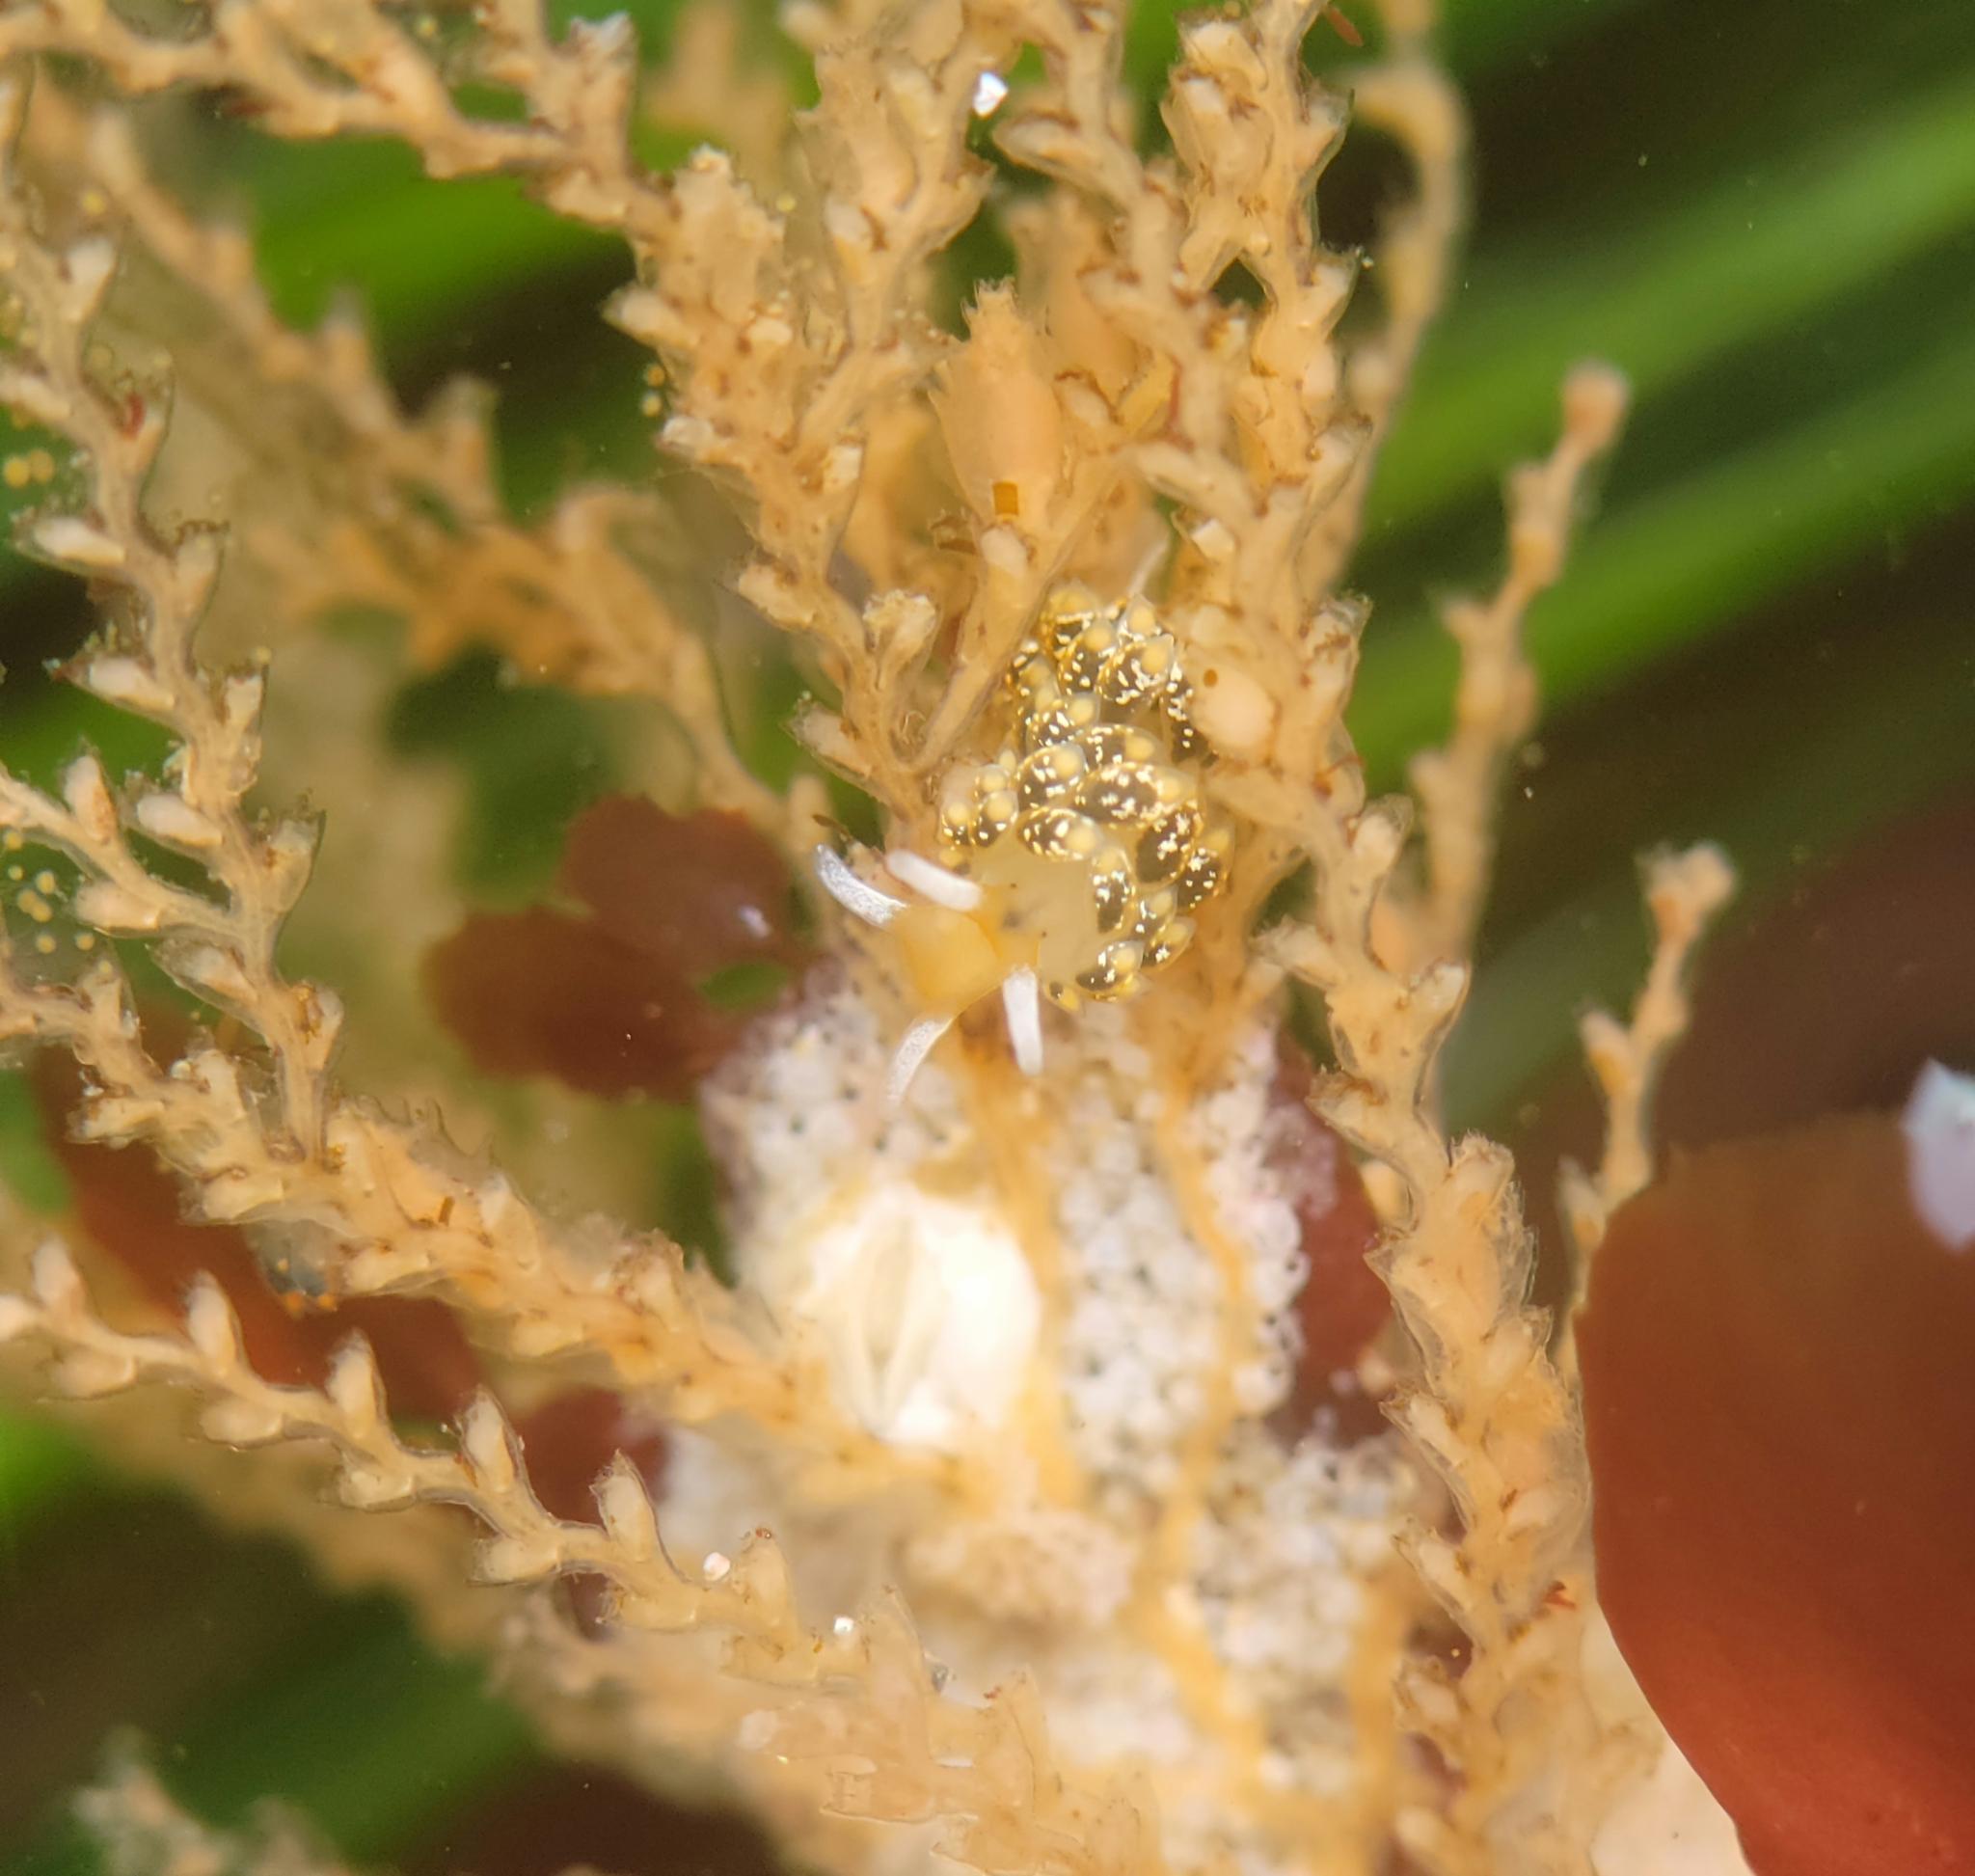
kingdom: Animalia
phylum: Mollusca
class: Gastropoda
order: Nudibranchia
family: Trinchesiidae
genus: Diaphoreolis
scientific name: Diaphoreolis flavovulta
